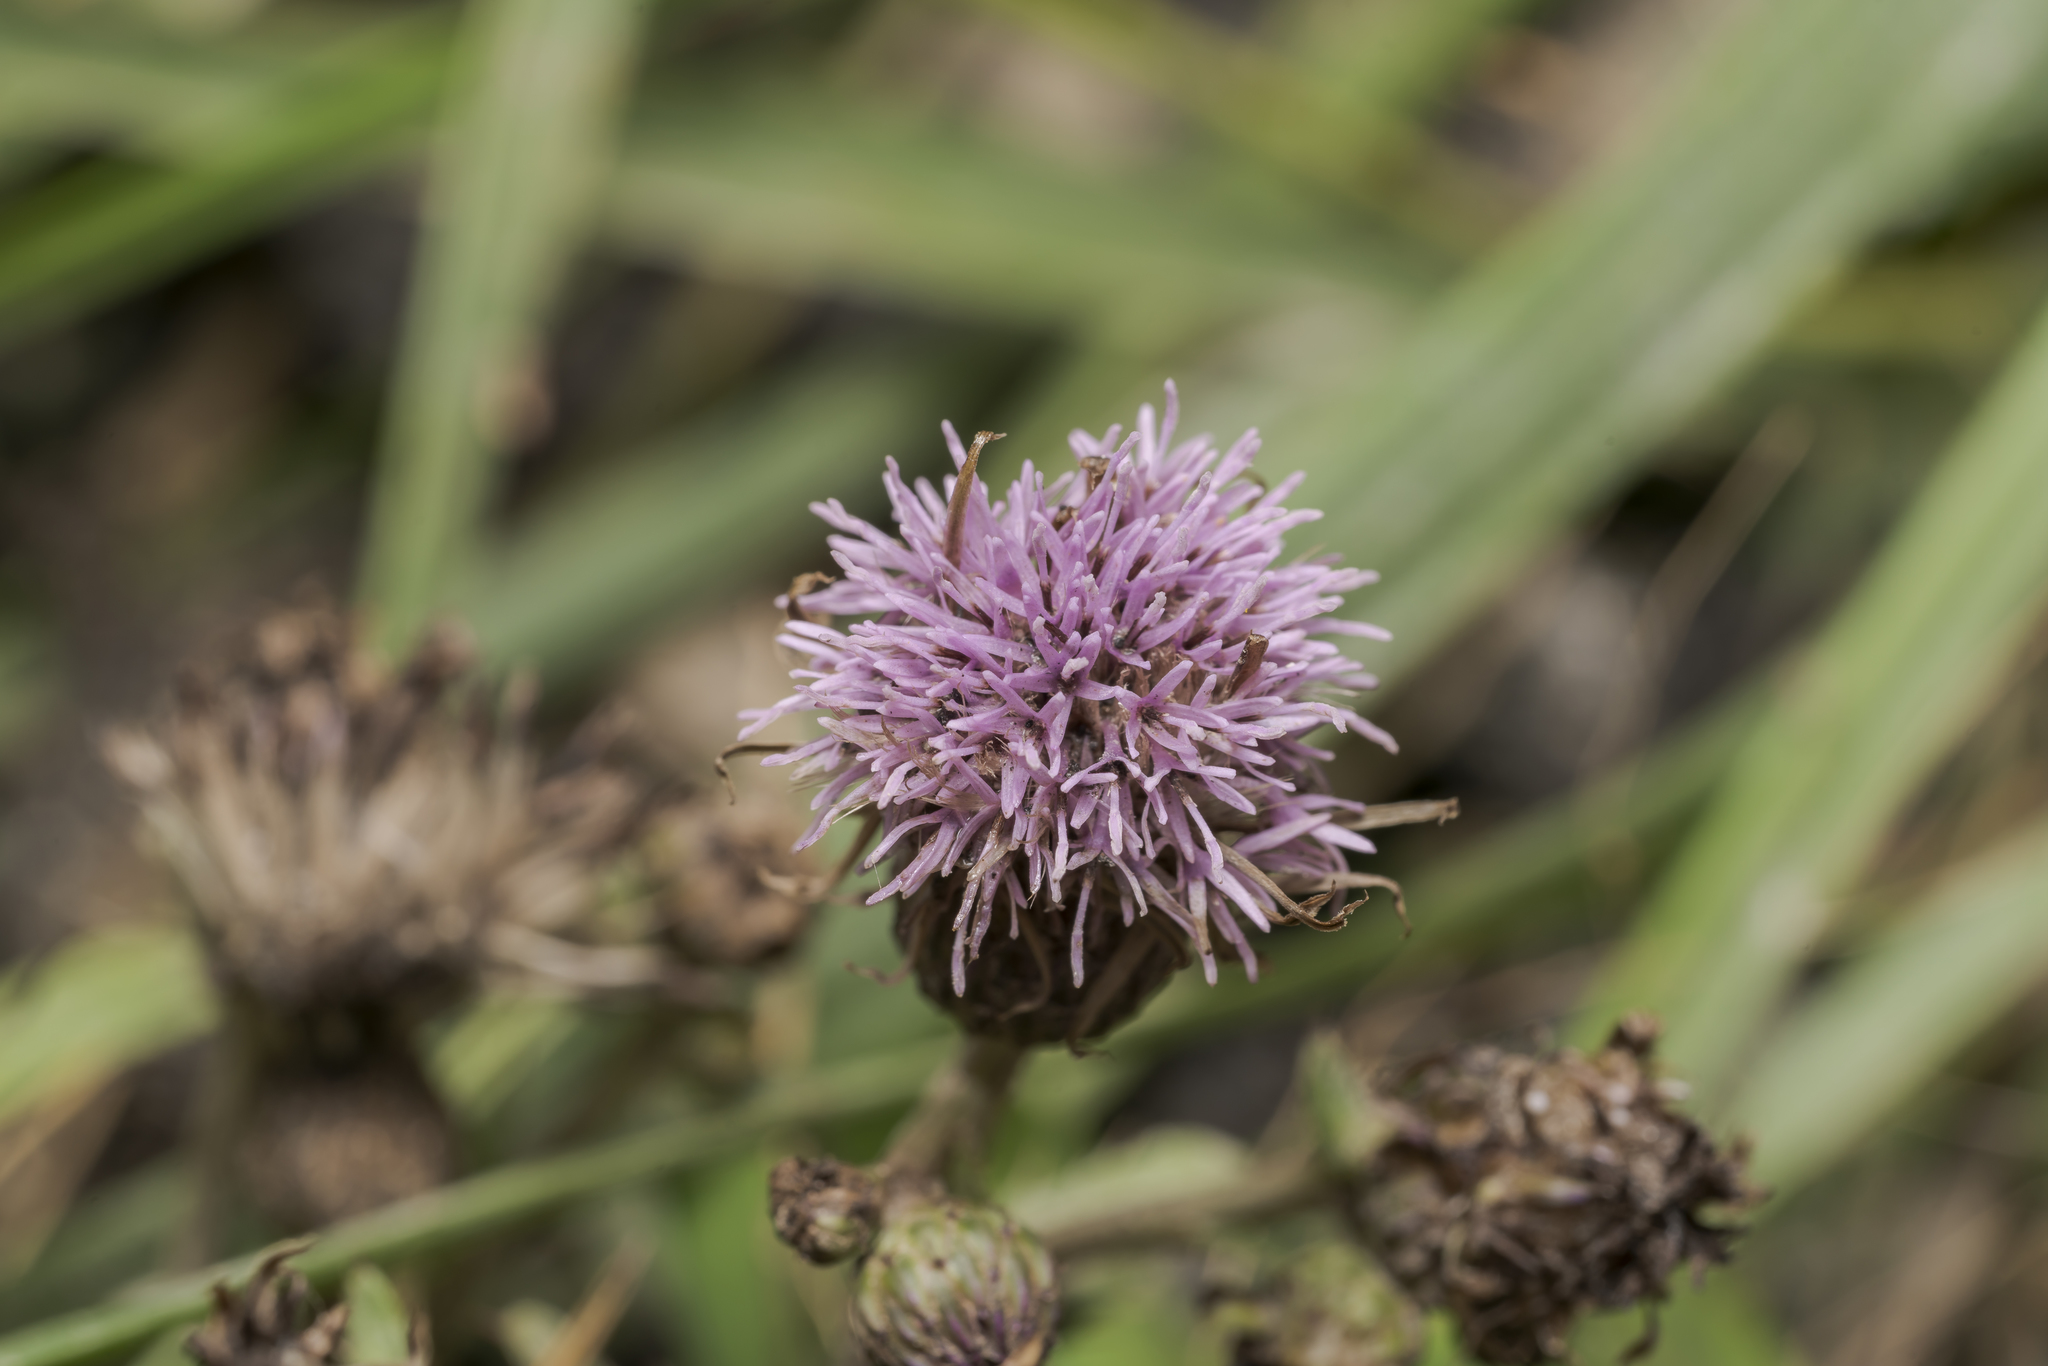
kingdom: Plantae
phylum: Tracheophyta
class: Magnoliopsida
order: Asterales
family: Asteraceae
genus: Cirsium
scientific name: Cirsium arvense
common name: Creeping thistle
